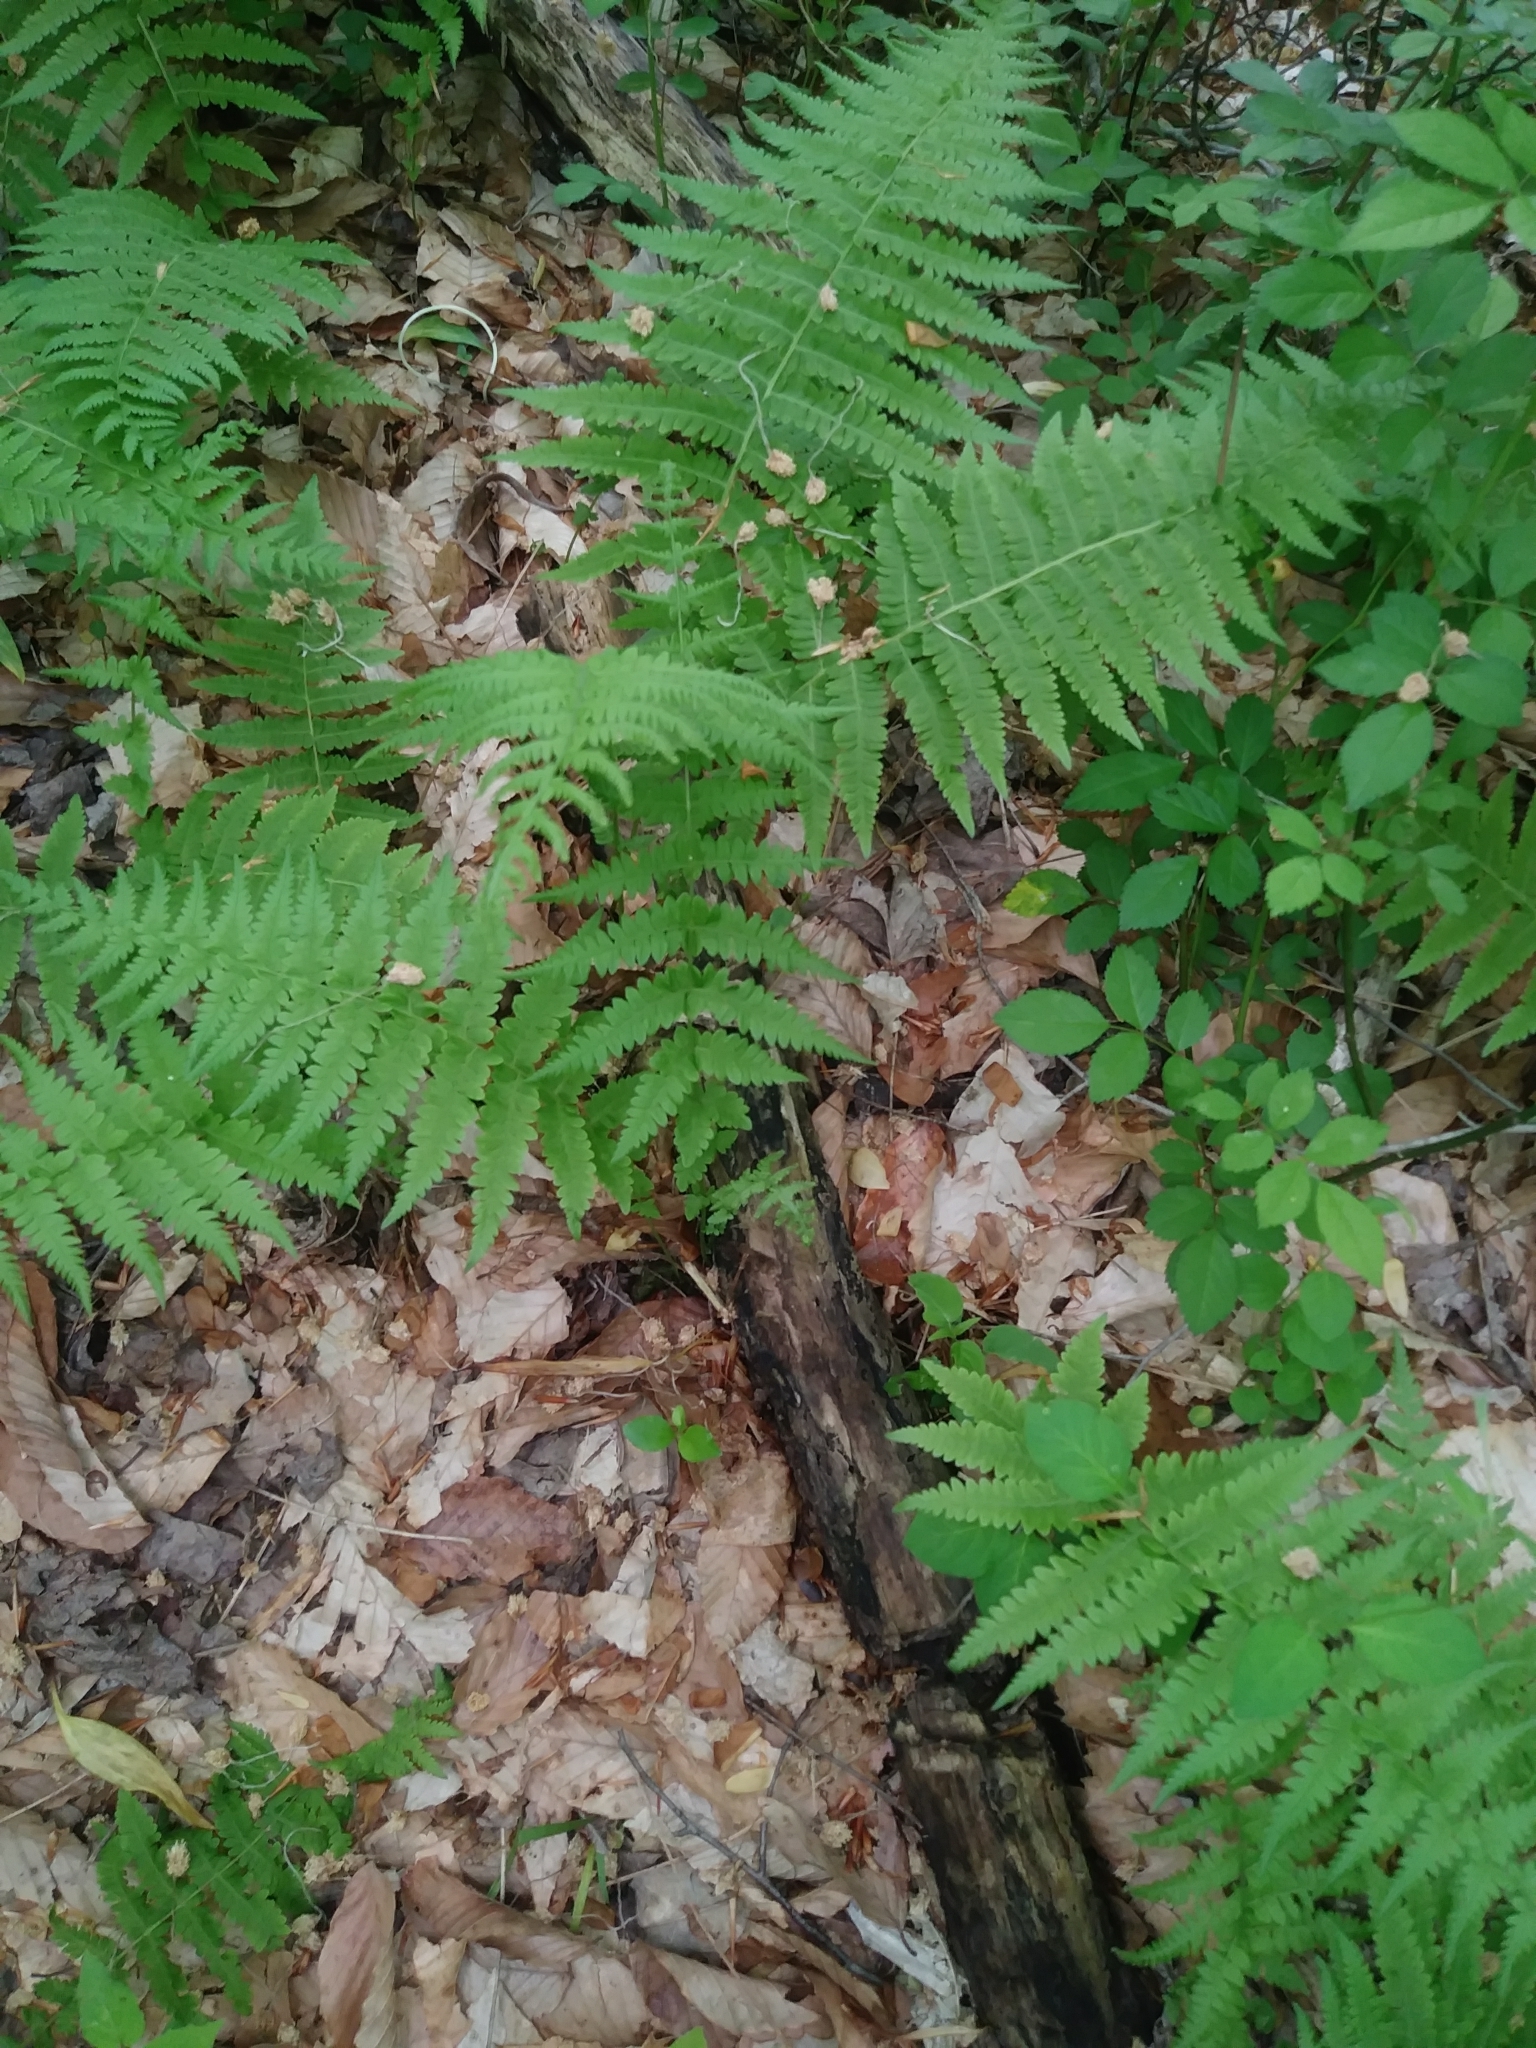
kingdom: Plantae
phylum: Tracheophyta
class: Polypodiopsida
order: Polypodiales
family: Thelypteridaceae
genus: Amauropelta
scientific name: Amauropelta noveboracensis
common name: New york fern
